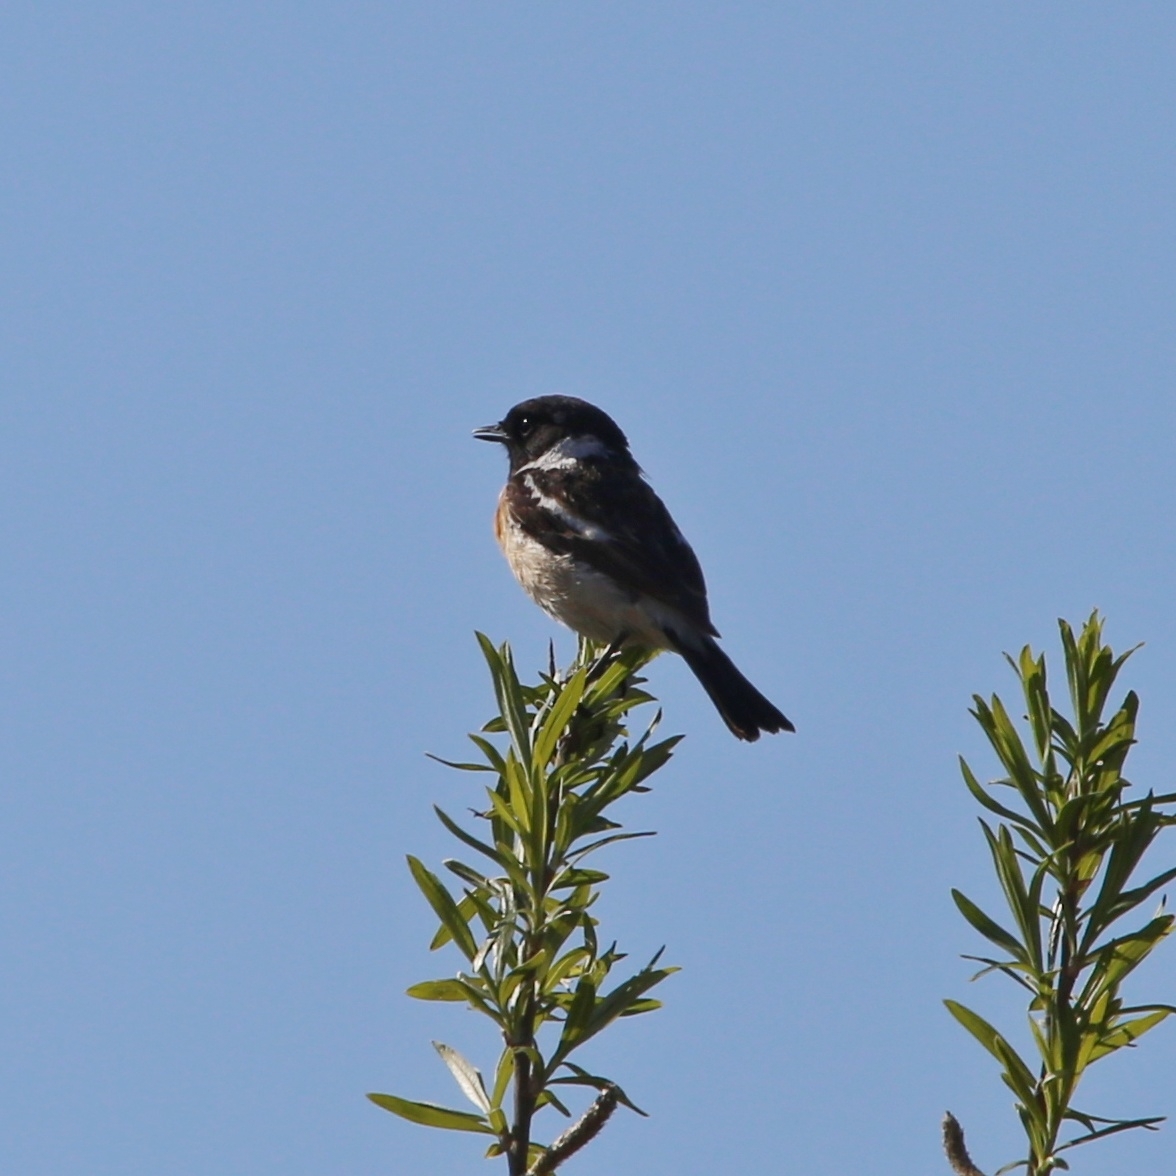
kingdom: Animalia
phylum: Chordata
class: Aves
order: Passeriformes
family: Muscicapidae
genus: Saxicola
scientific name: Saxicola maurus
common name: Siberian stonechat
